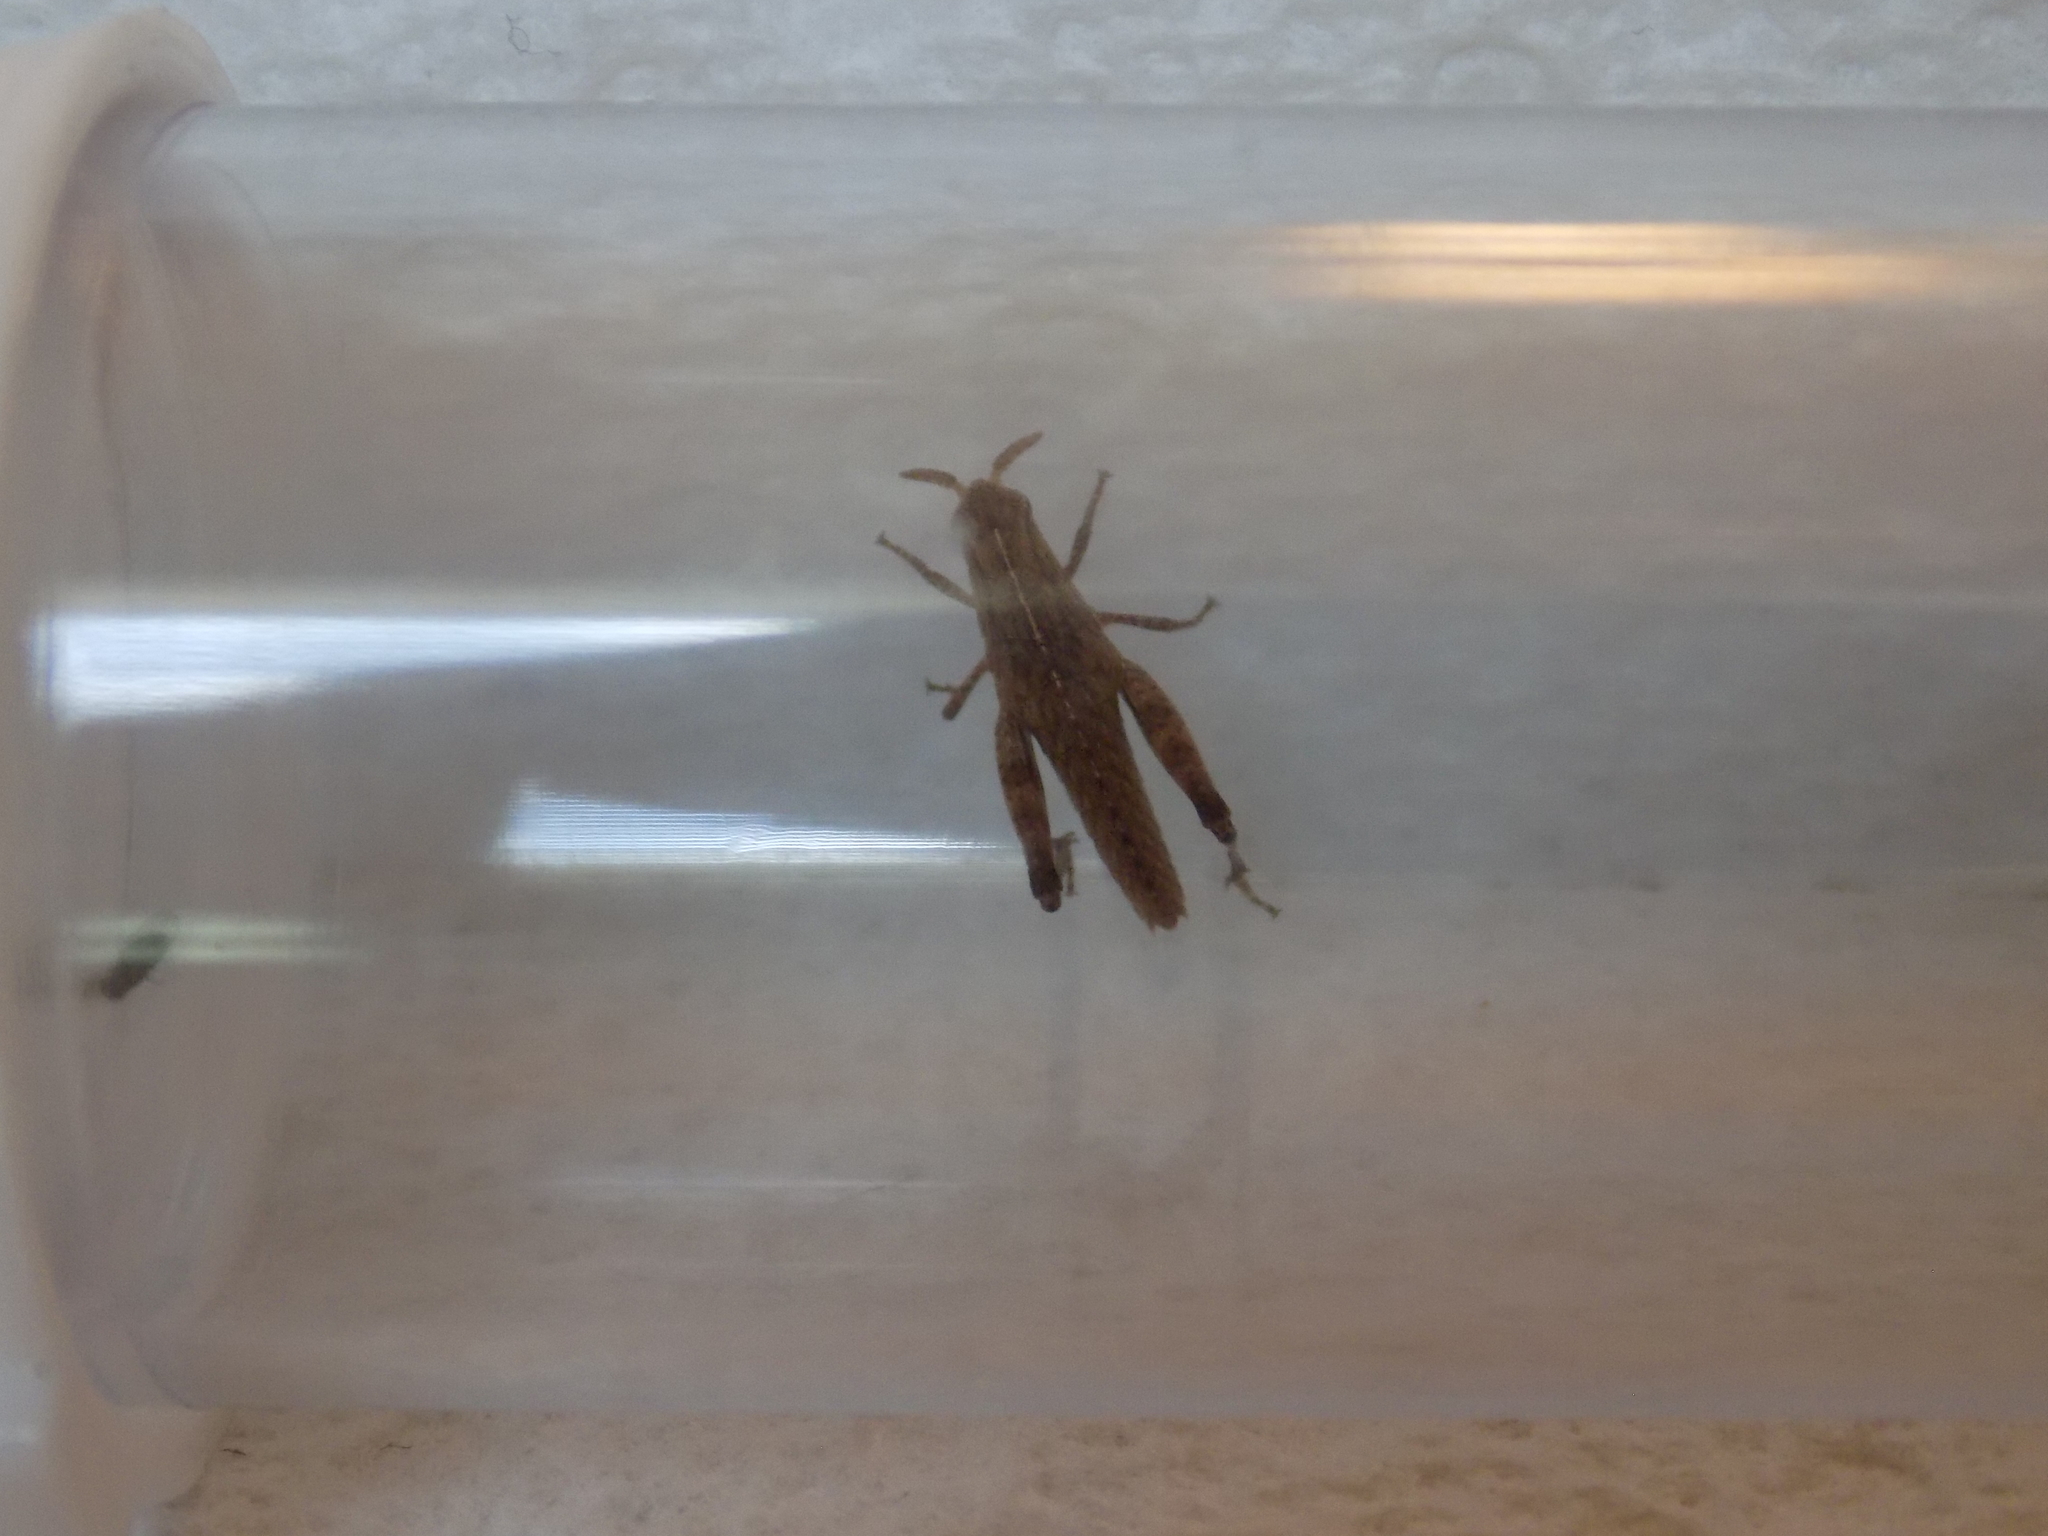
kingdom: Animalia
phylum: Arthropoda
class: Insecta
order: Orthoptera
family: Acrididae
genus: Chortophaga
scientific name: Chortophaga viridifasciata
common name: Green-striped grasshopper
